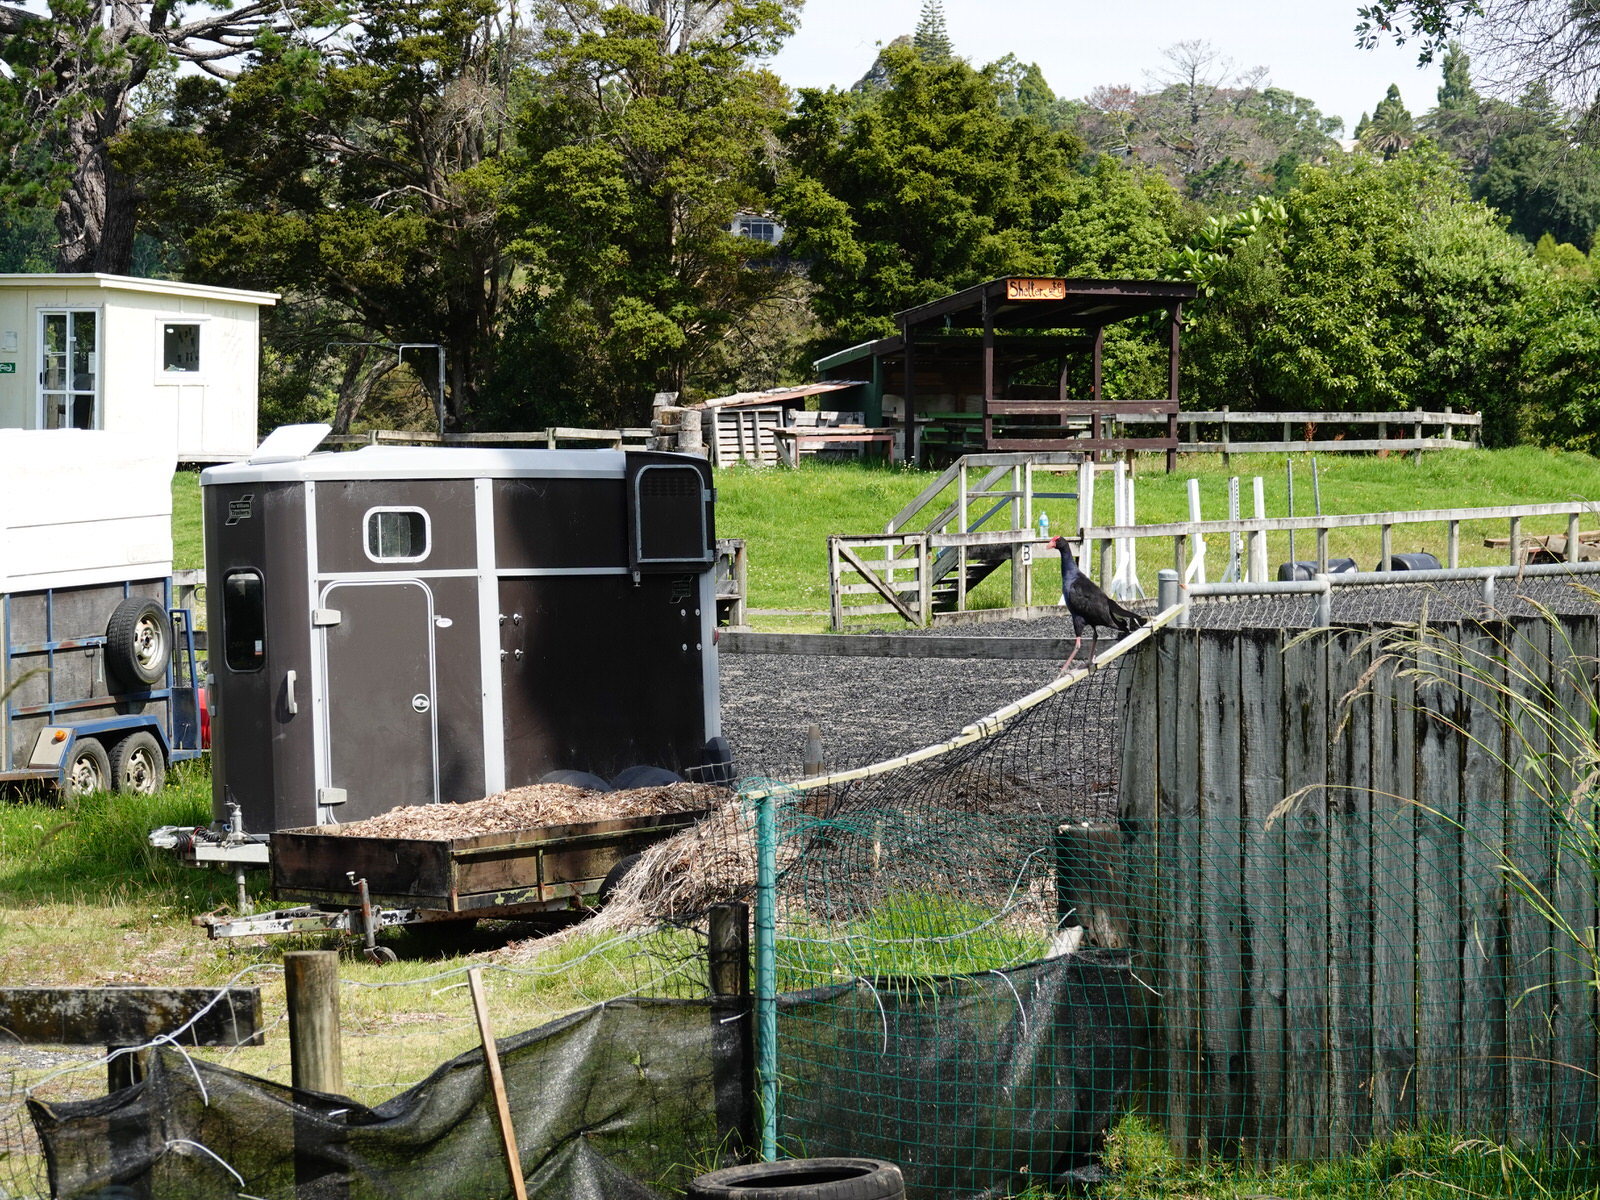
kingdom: Animalia
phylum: Chordata
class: Aves
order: Gruiformes
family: Rallidae
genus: Porphyrio
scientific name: Porphyrio melanotus
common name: Australasian swamphen
